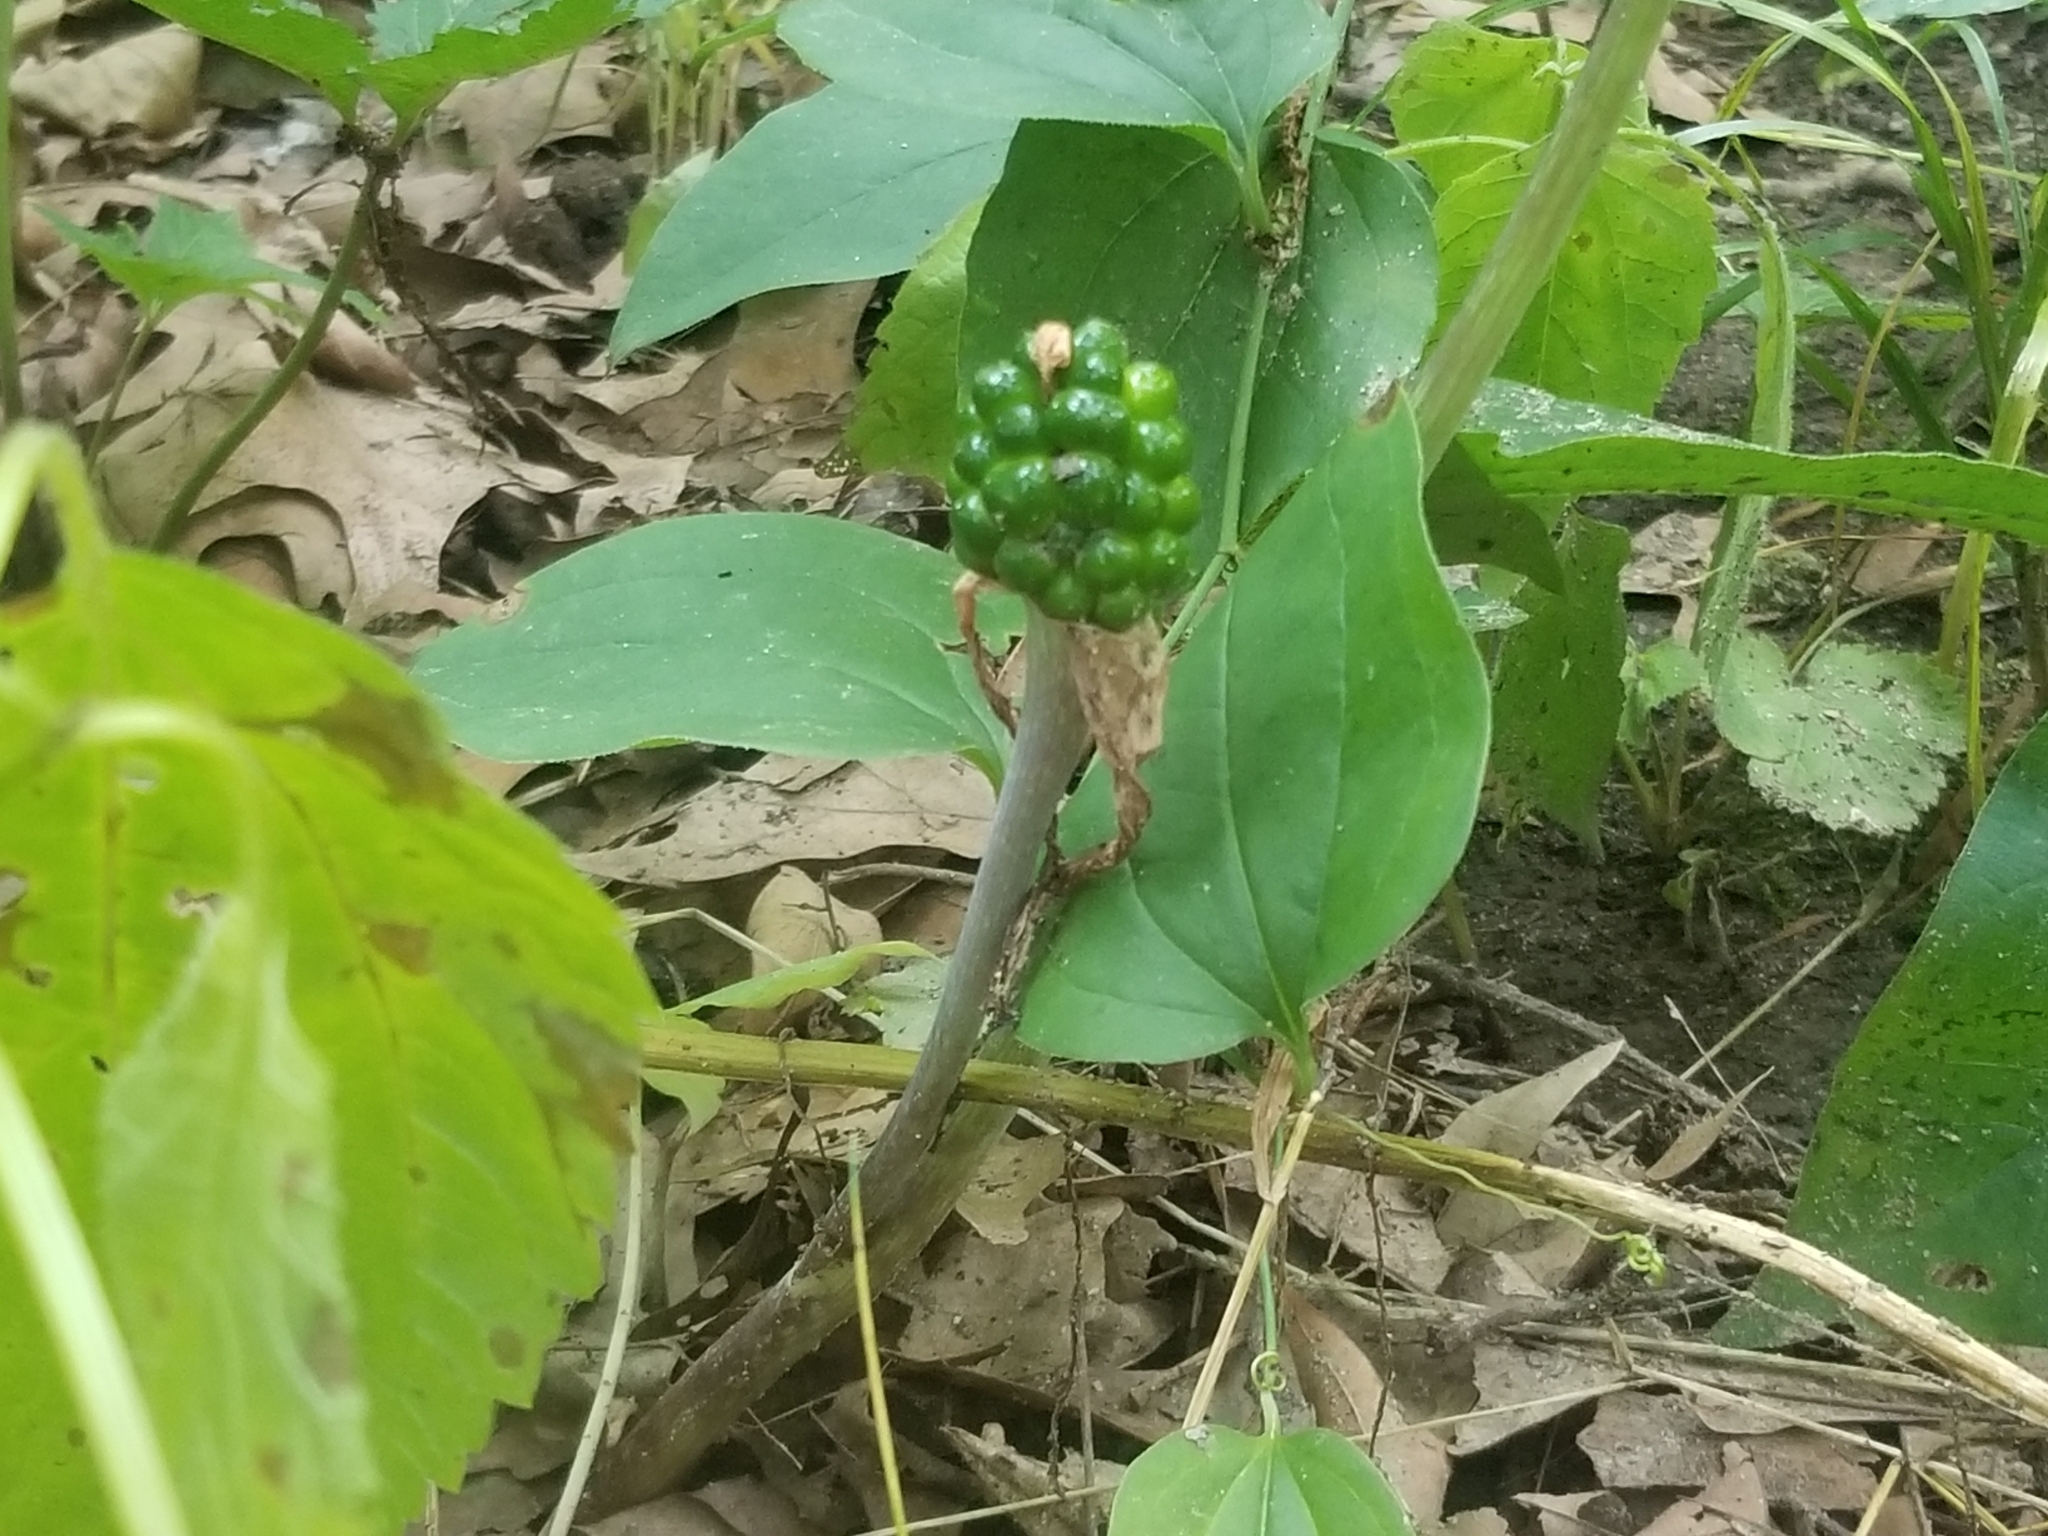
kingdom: Plantae
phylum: Tracheophyta
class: Liliopsida
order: Alismatales
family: Araceae
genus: Arisaema
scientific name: Arisaema triphyllum
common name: Jack-in-the-pulpit
